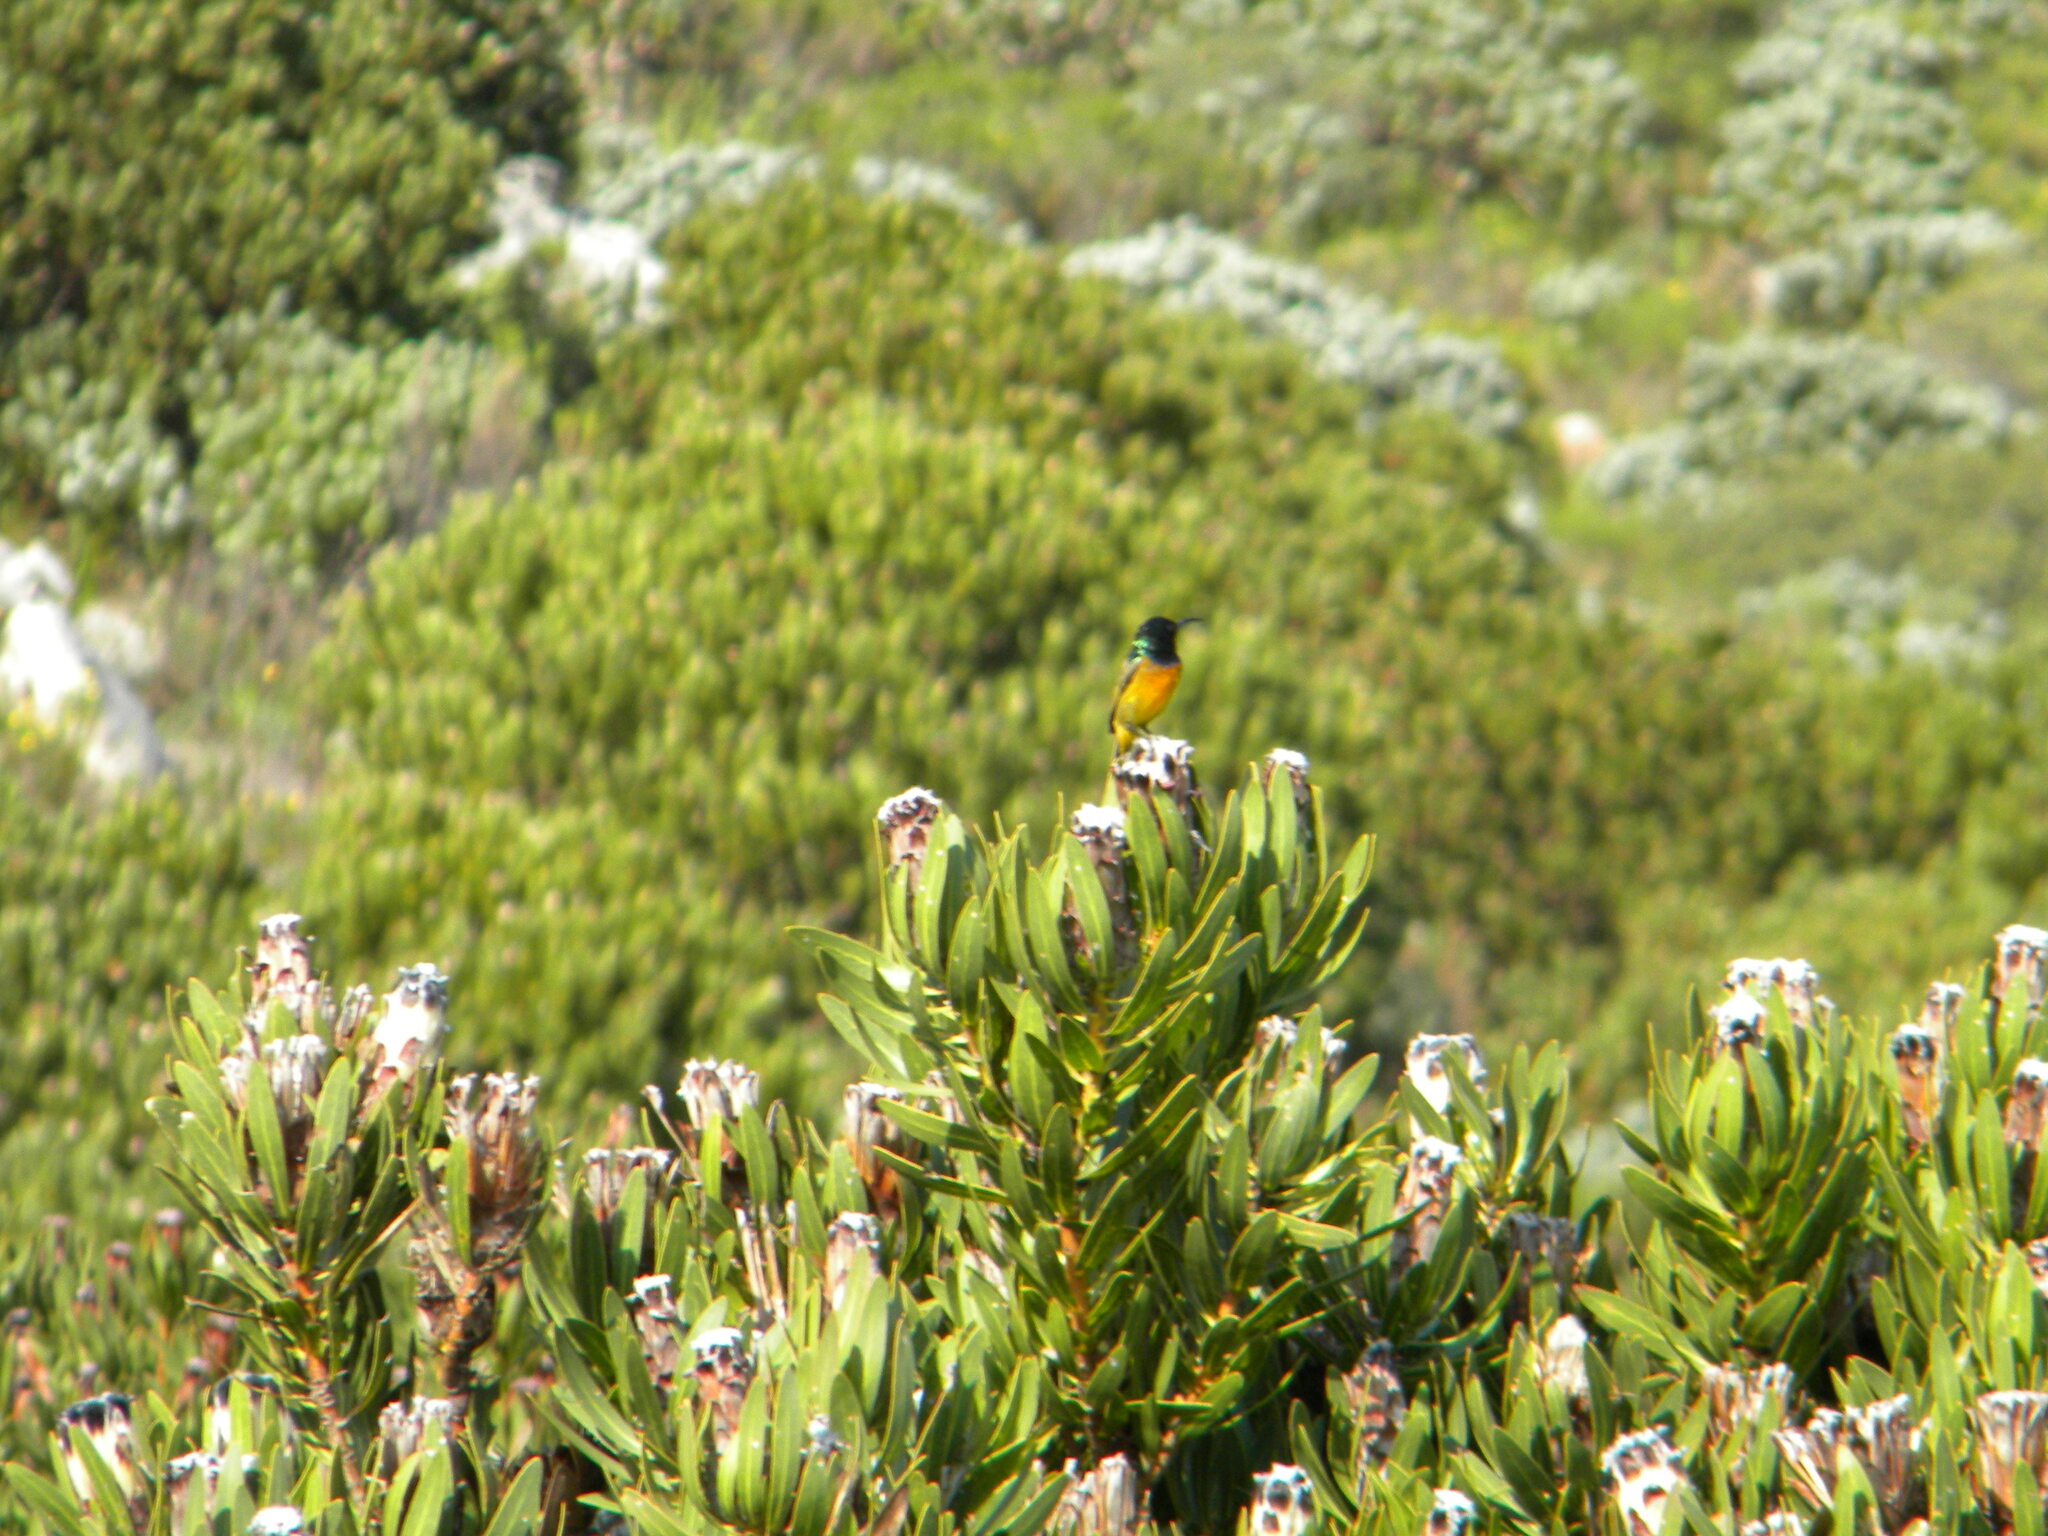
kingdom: Animalia
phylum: Chordata
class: Aves
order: Passeriformes
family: Nectariniidae
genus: Anthobaphes
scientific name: Anthobaphes violacea
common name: Orange-breasted sunbird
